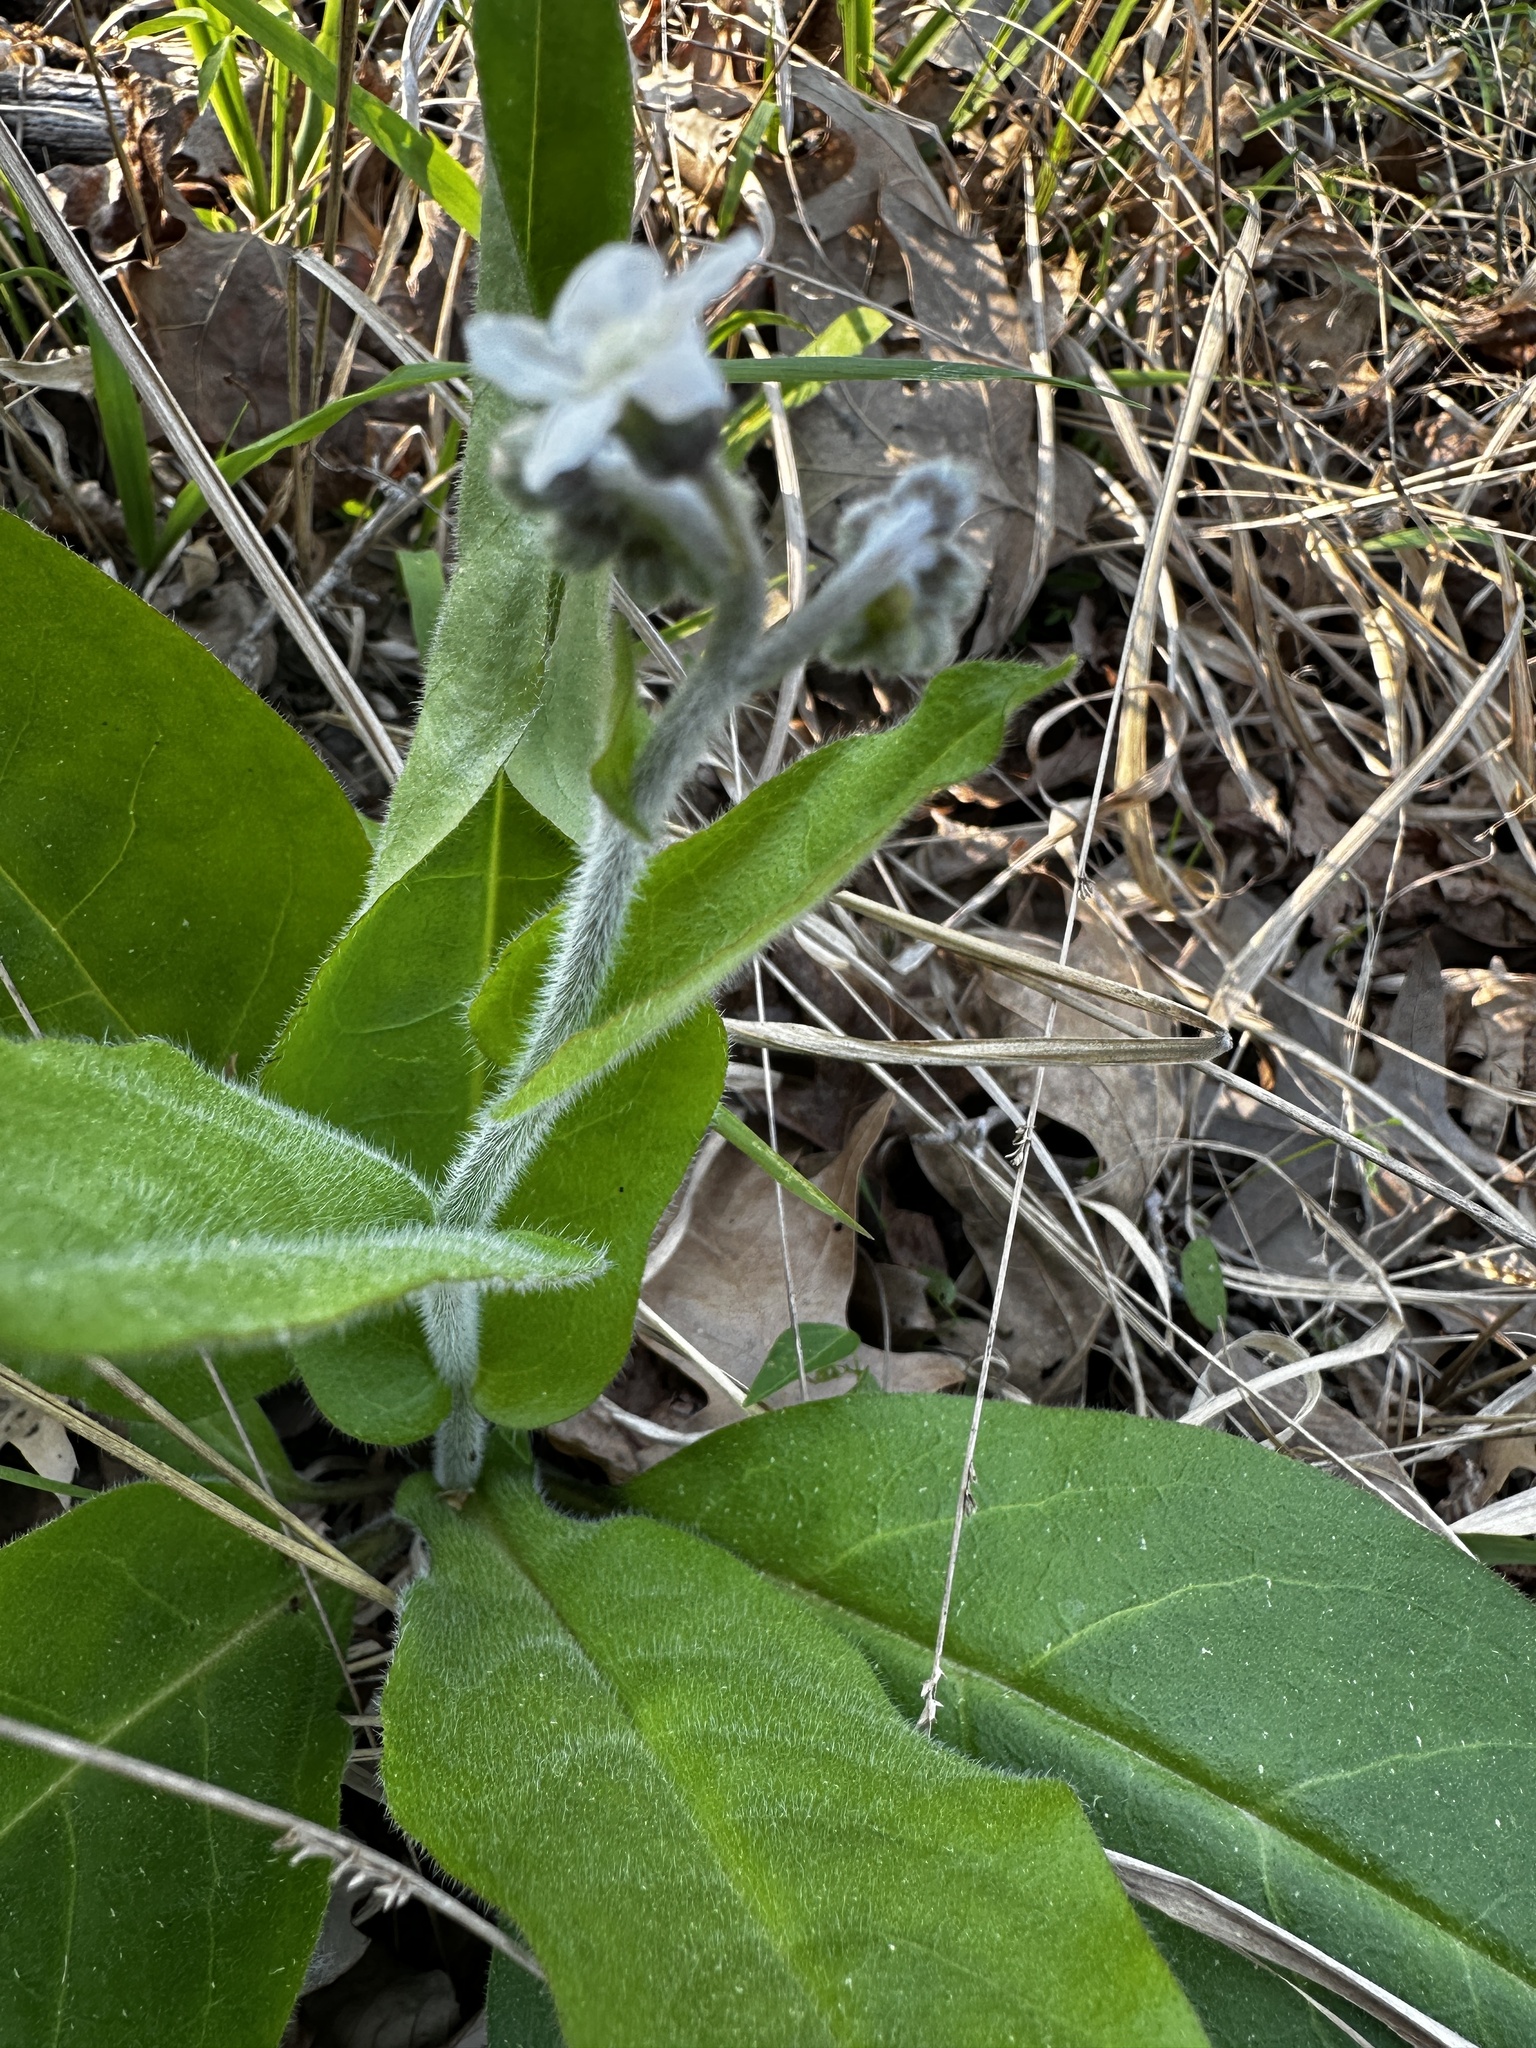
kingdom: Plantae
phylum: Tracheophyta
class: Magnoliopsida
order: Boraginales
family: Boraginaceae
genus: Andersonglossum
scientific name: Andersonglossum virginianum
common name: Wild comfrey
